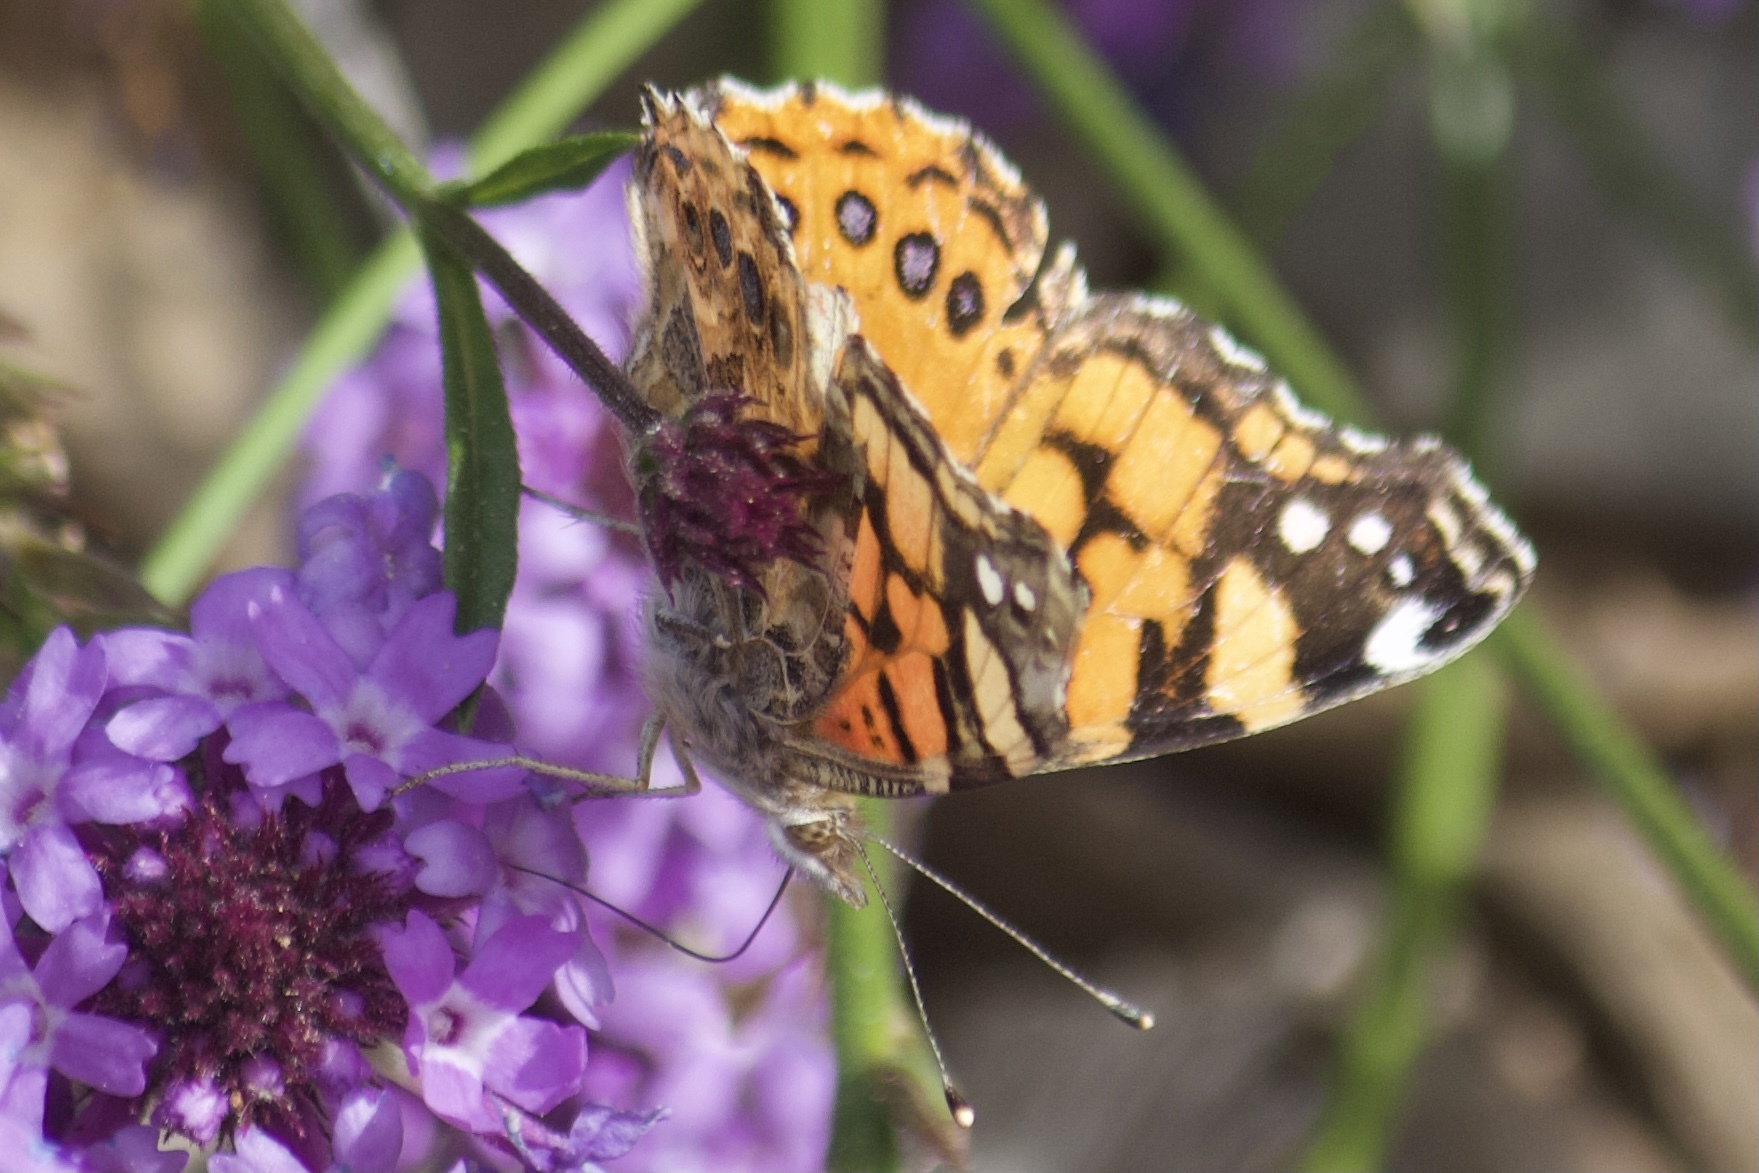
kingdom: Animalia
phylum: Arthropoda
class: Insecta
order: Lepidoptera
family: Nymphalidae
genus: Vanessa
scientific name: Vanessa annabella
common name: West coast lady
